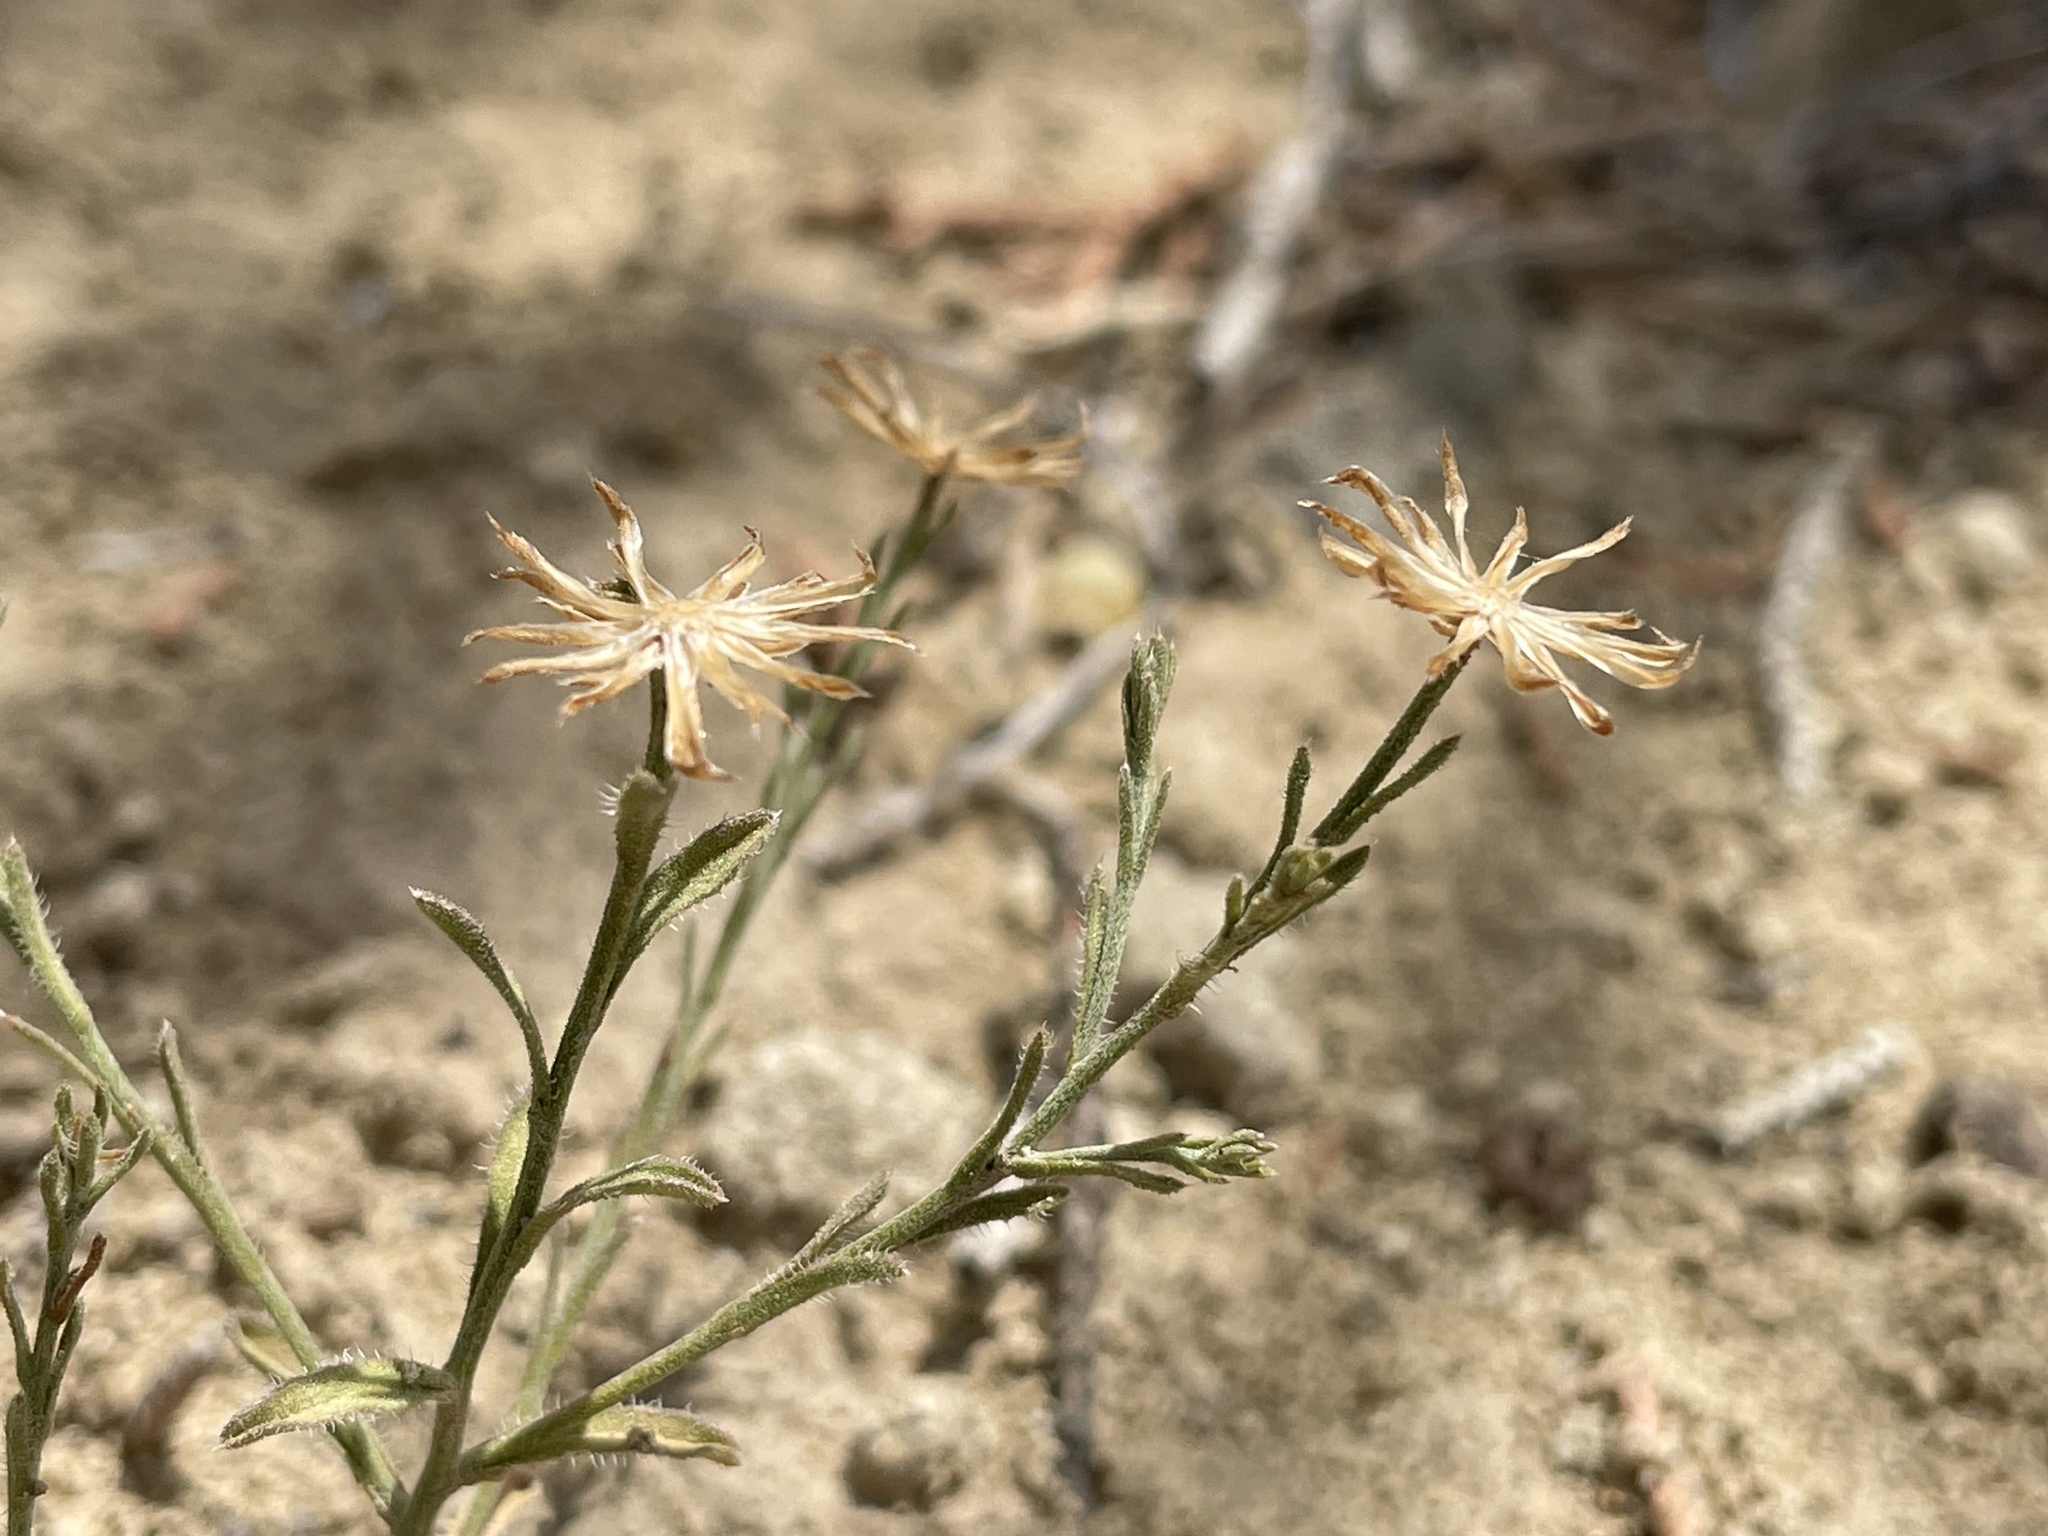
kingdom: Plantae
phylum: Tracheophyta
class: Magnoliopsida
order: Asterales
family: Asteraceae
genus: Chaetopappa
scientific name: Chaetopappa ericoides
